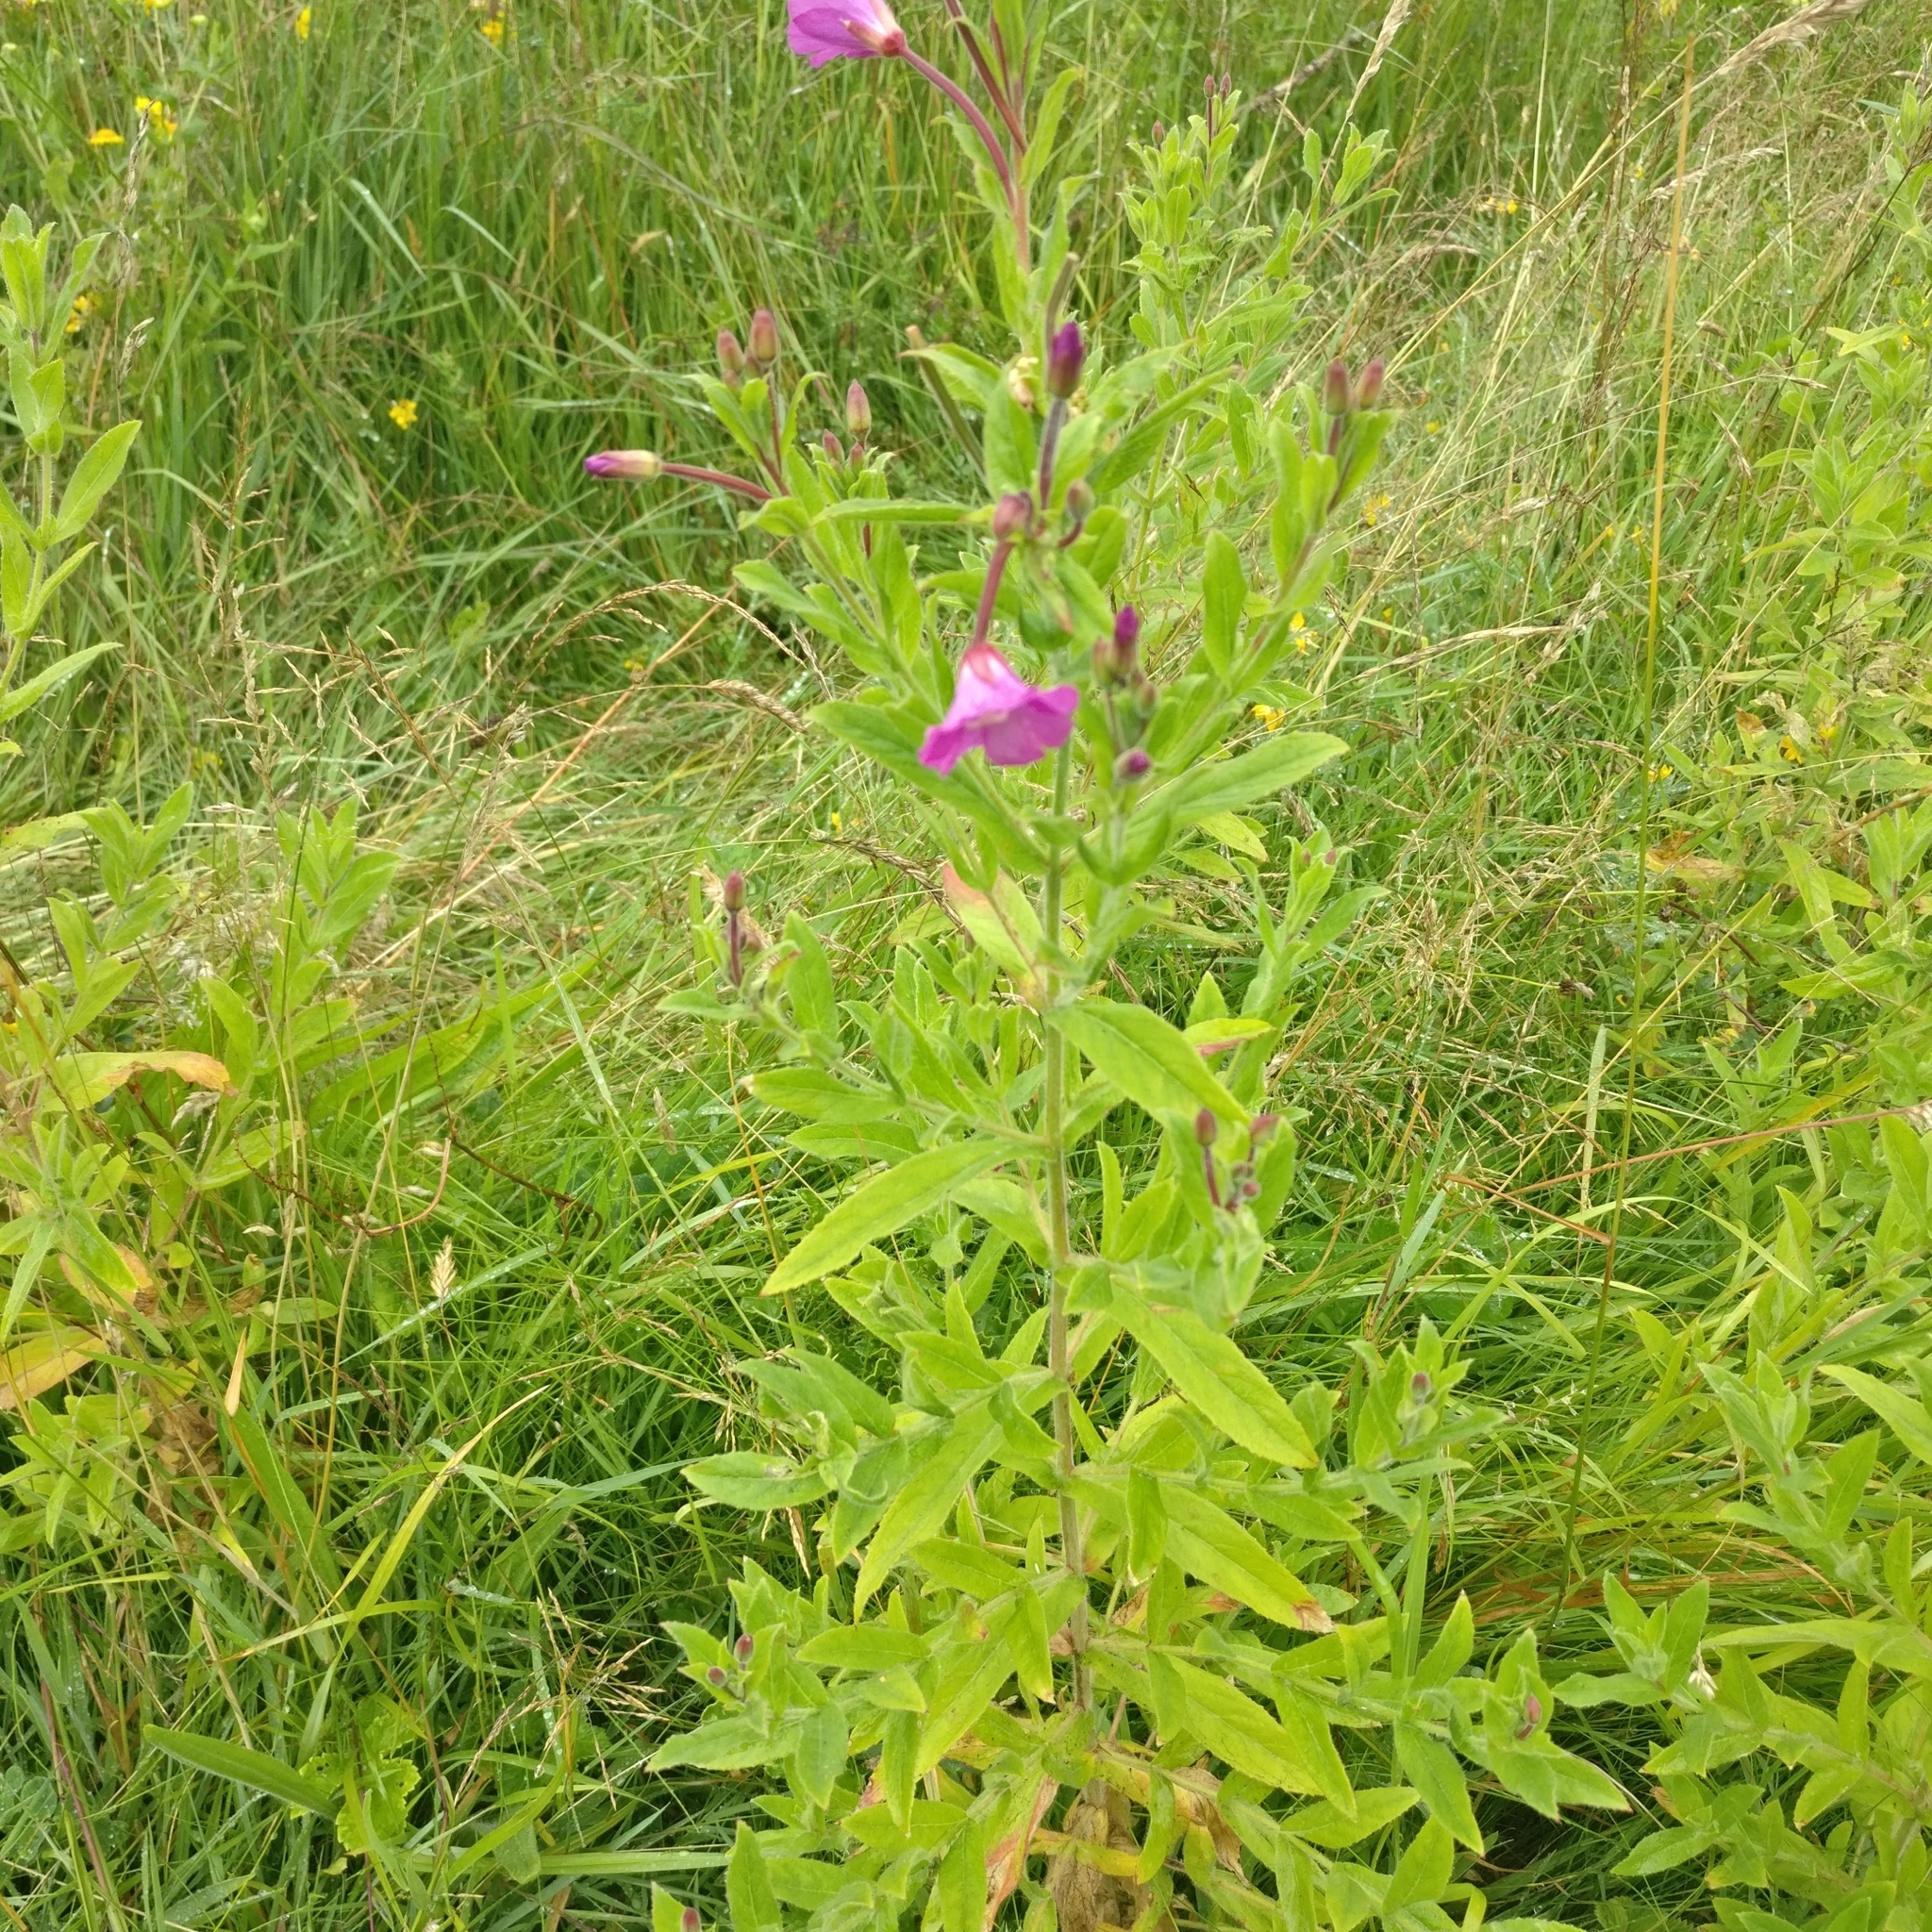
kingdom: Plantae
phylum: Tracheophyta
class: Magnoliopsida
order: Myrtales
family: Onagraceae
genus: Epilobium
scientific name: Epilobium hirsutum
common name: Great willowherb
